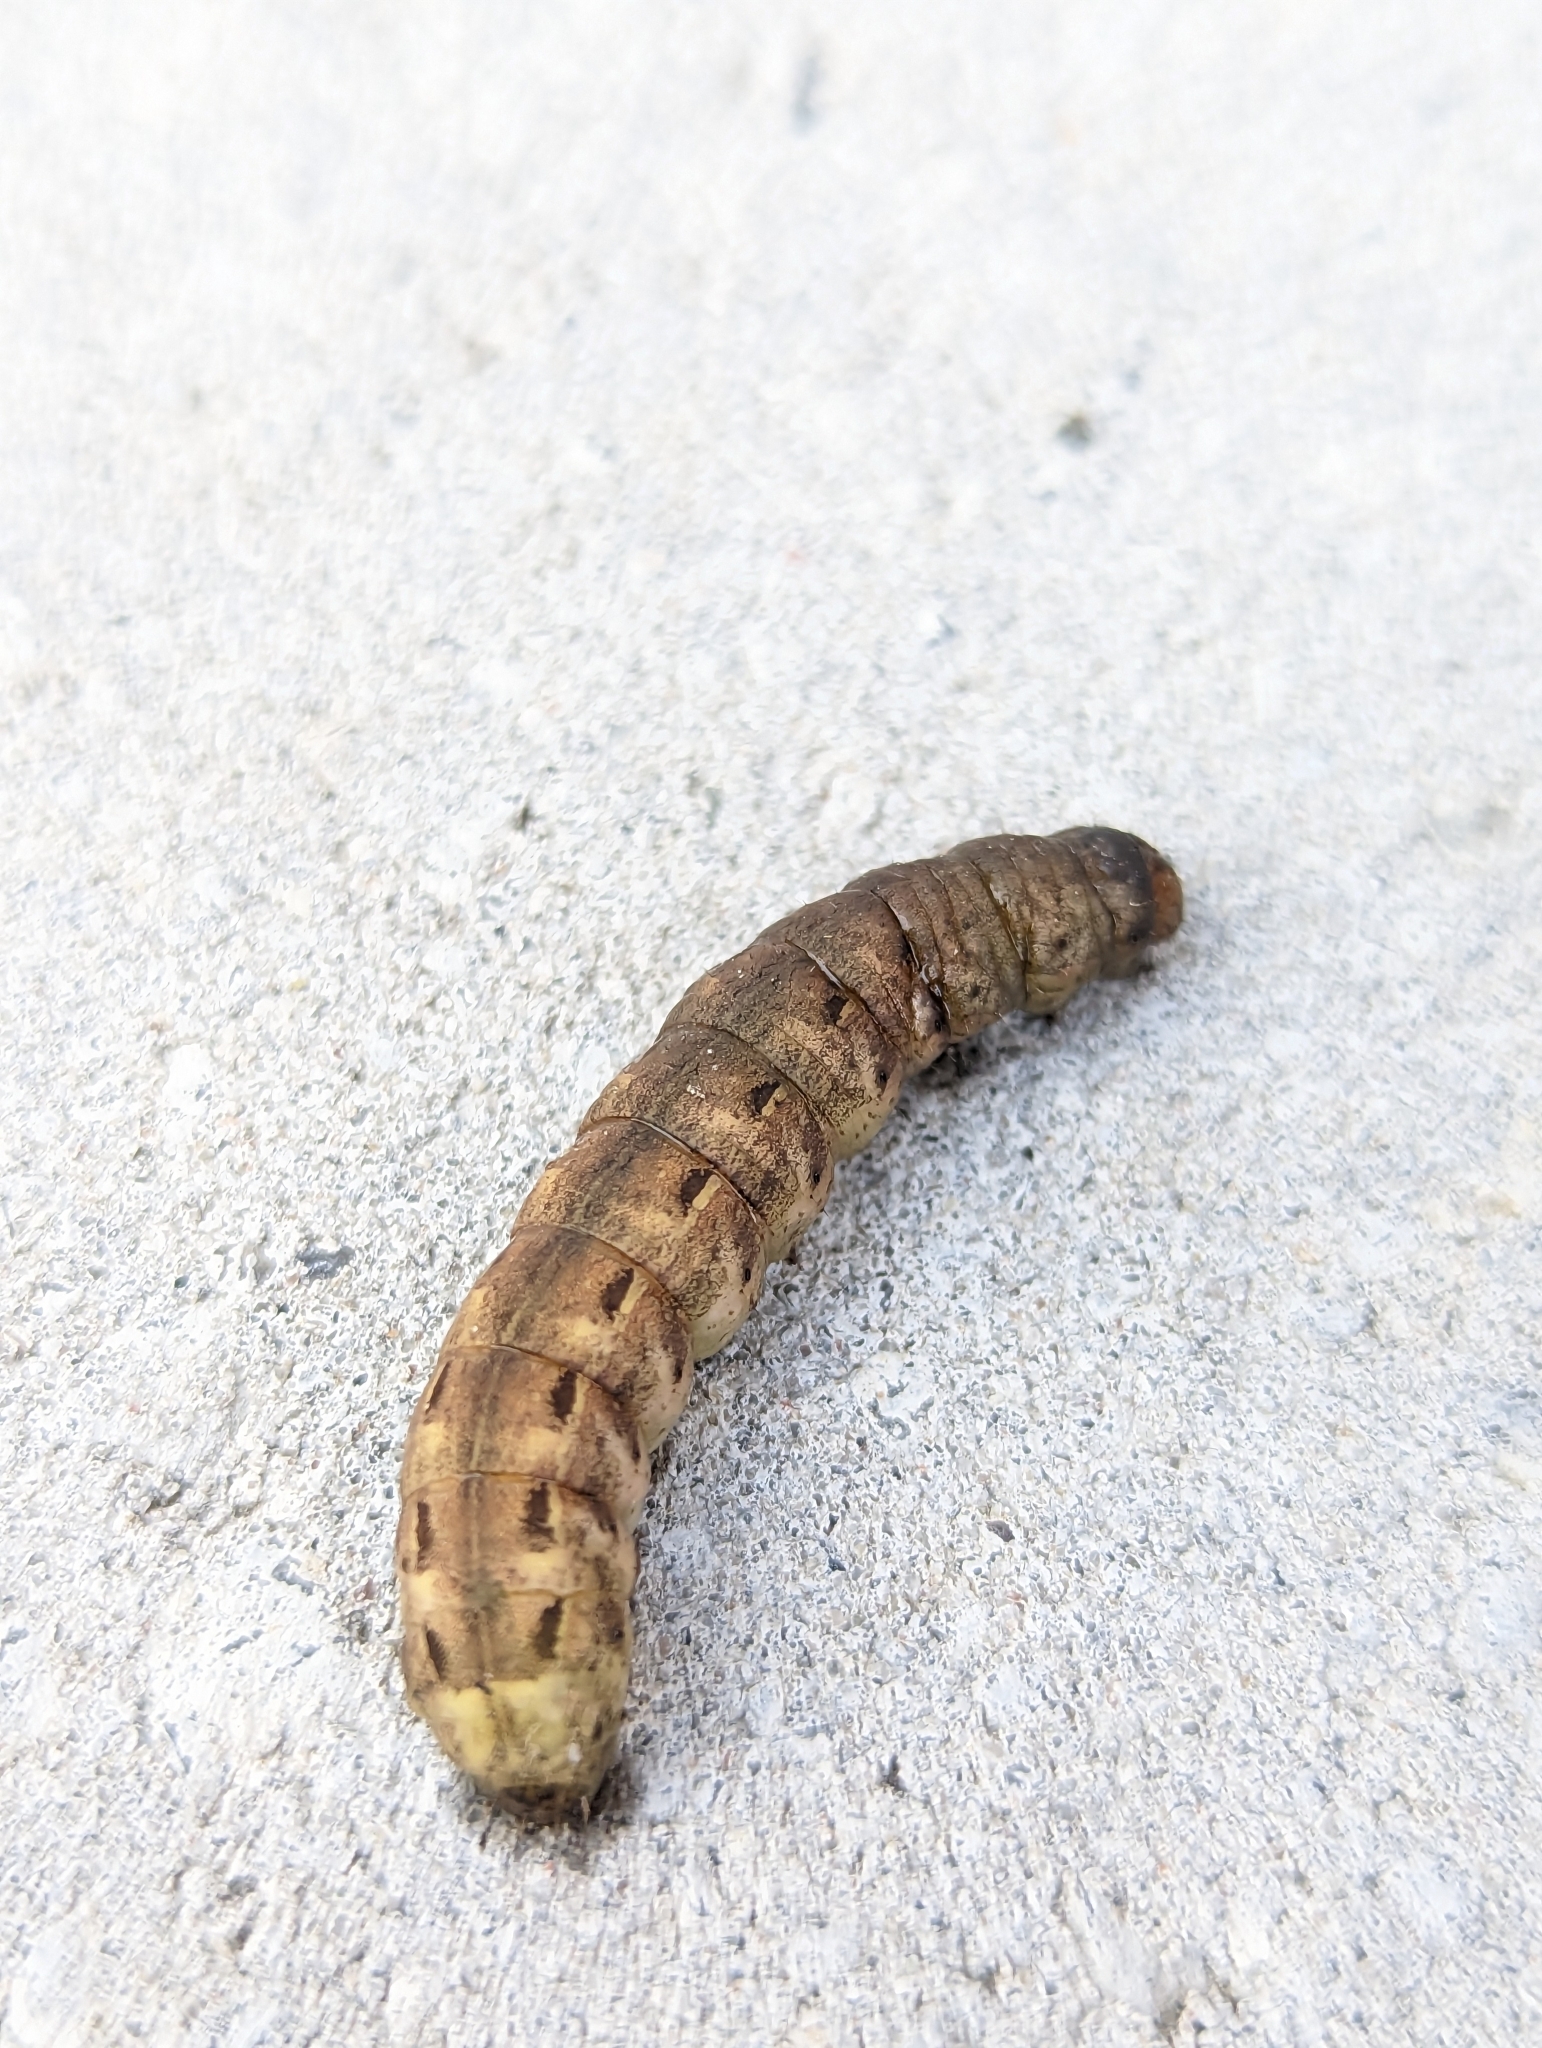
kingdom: Animalia
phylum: Arthropoda
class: Insecta
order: Lepidoptera
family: Noctuidae
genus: Noctua
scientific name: Noctua pronuba
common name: Large yellow underwing
